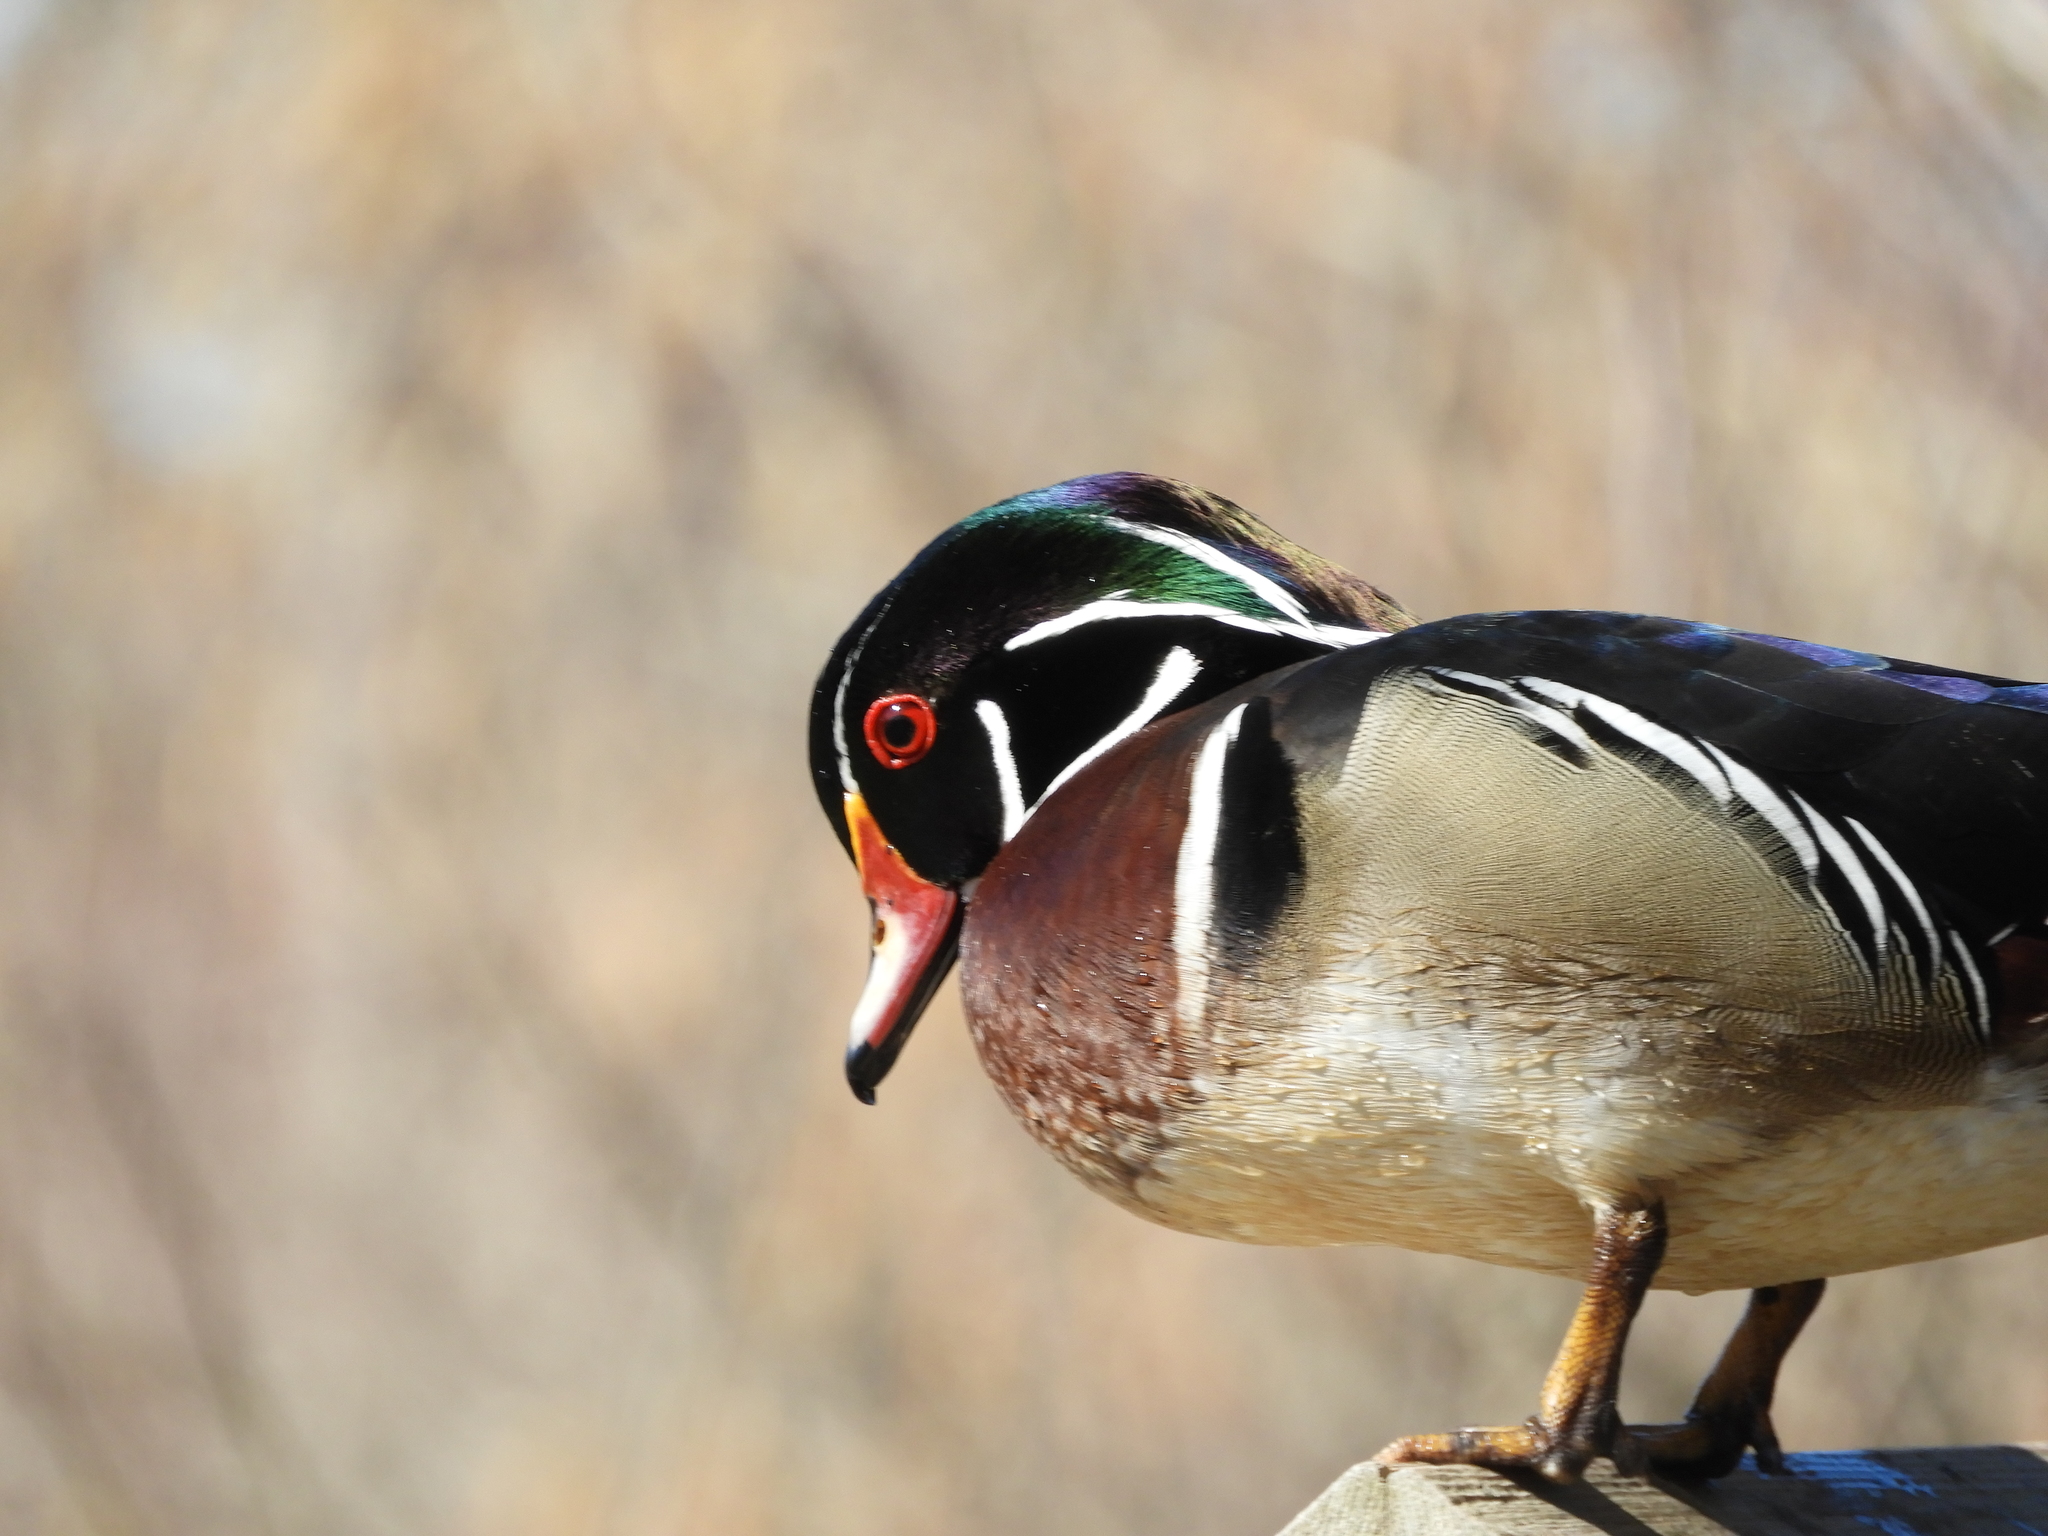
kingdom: Animalia
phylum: Chordata
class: Aves
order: Anseriformes
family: Anatidae
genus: Aix
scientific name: Aix sponsa
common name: Wood duck
